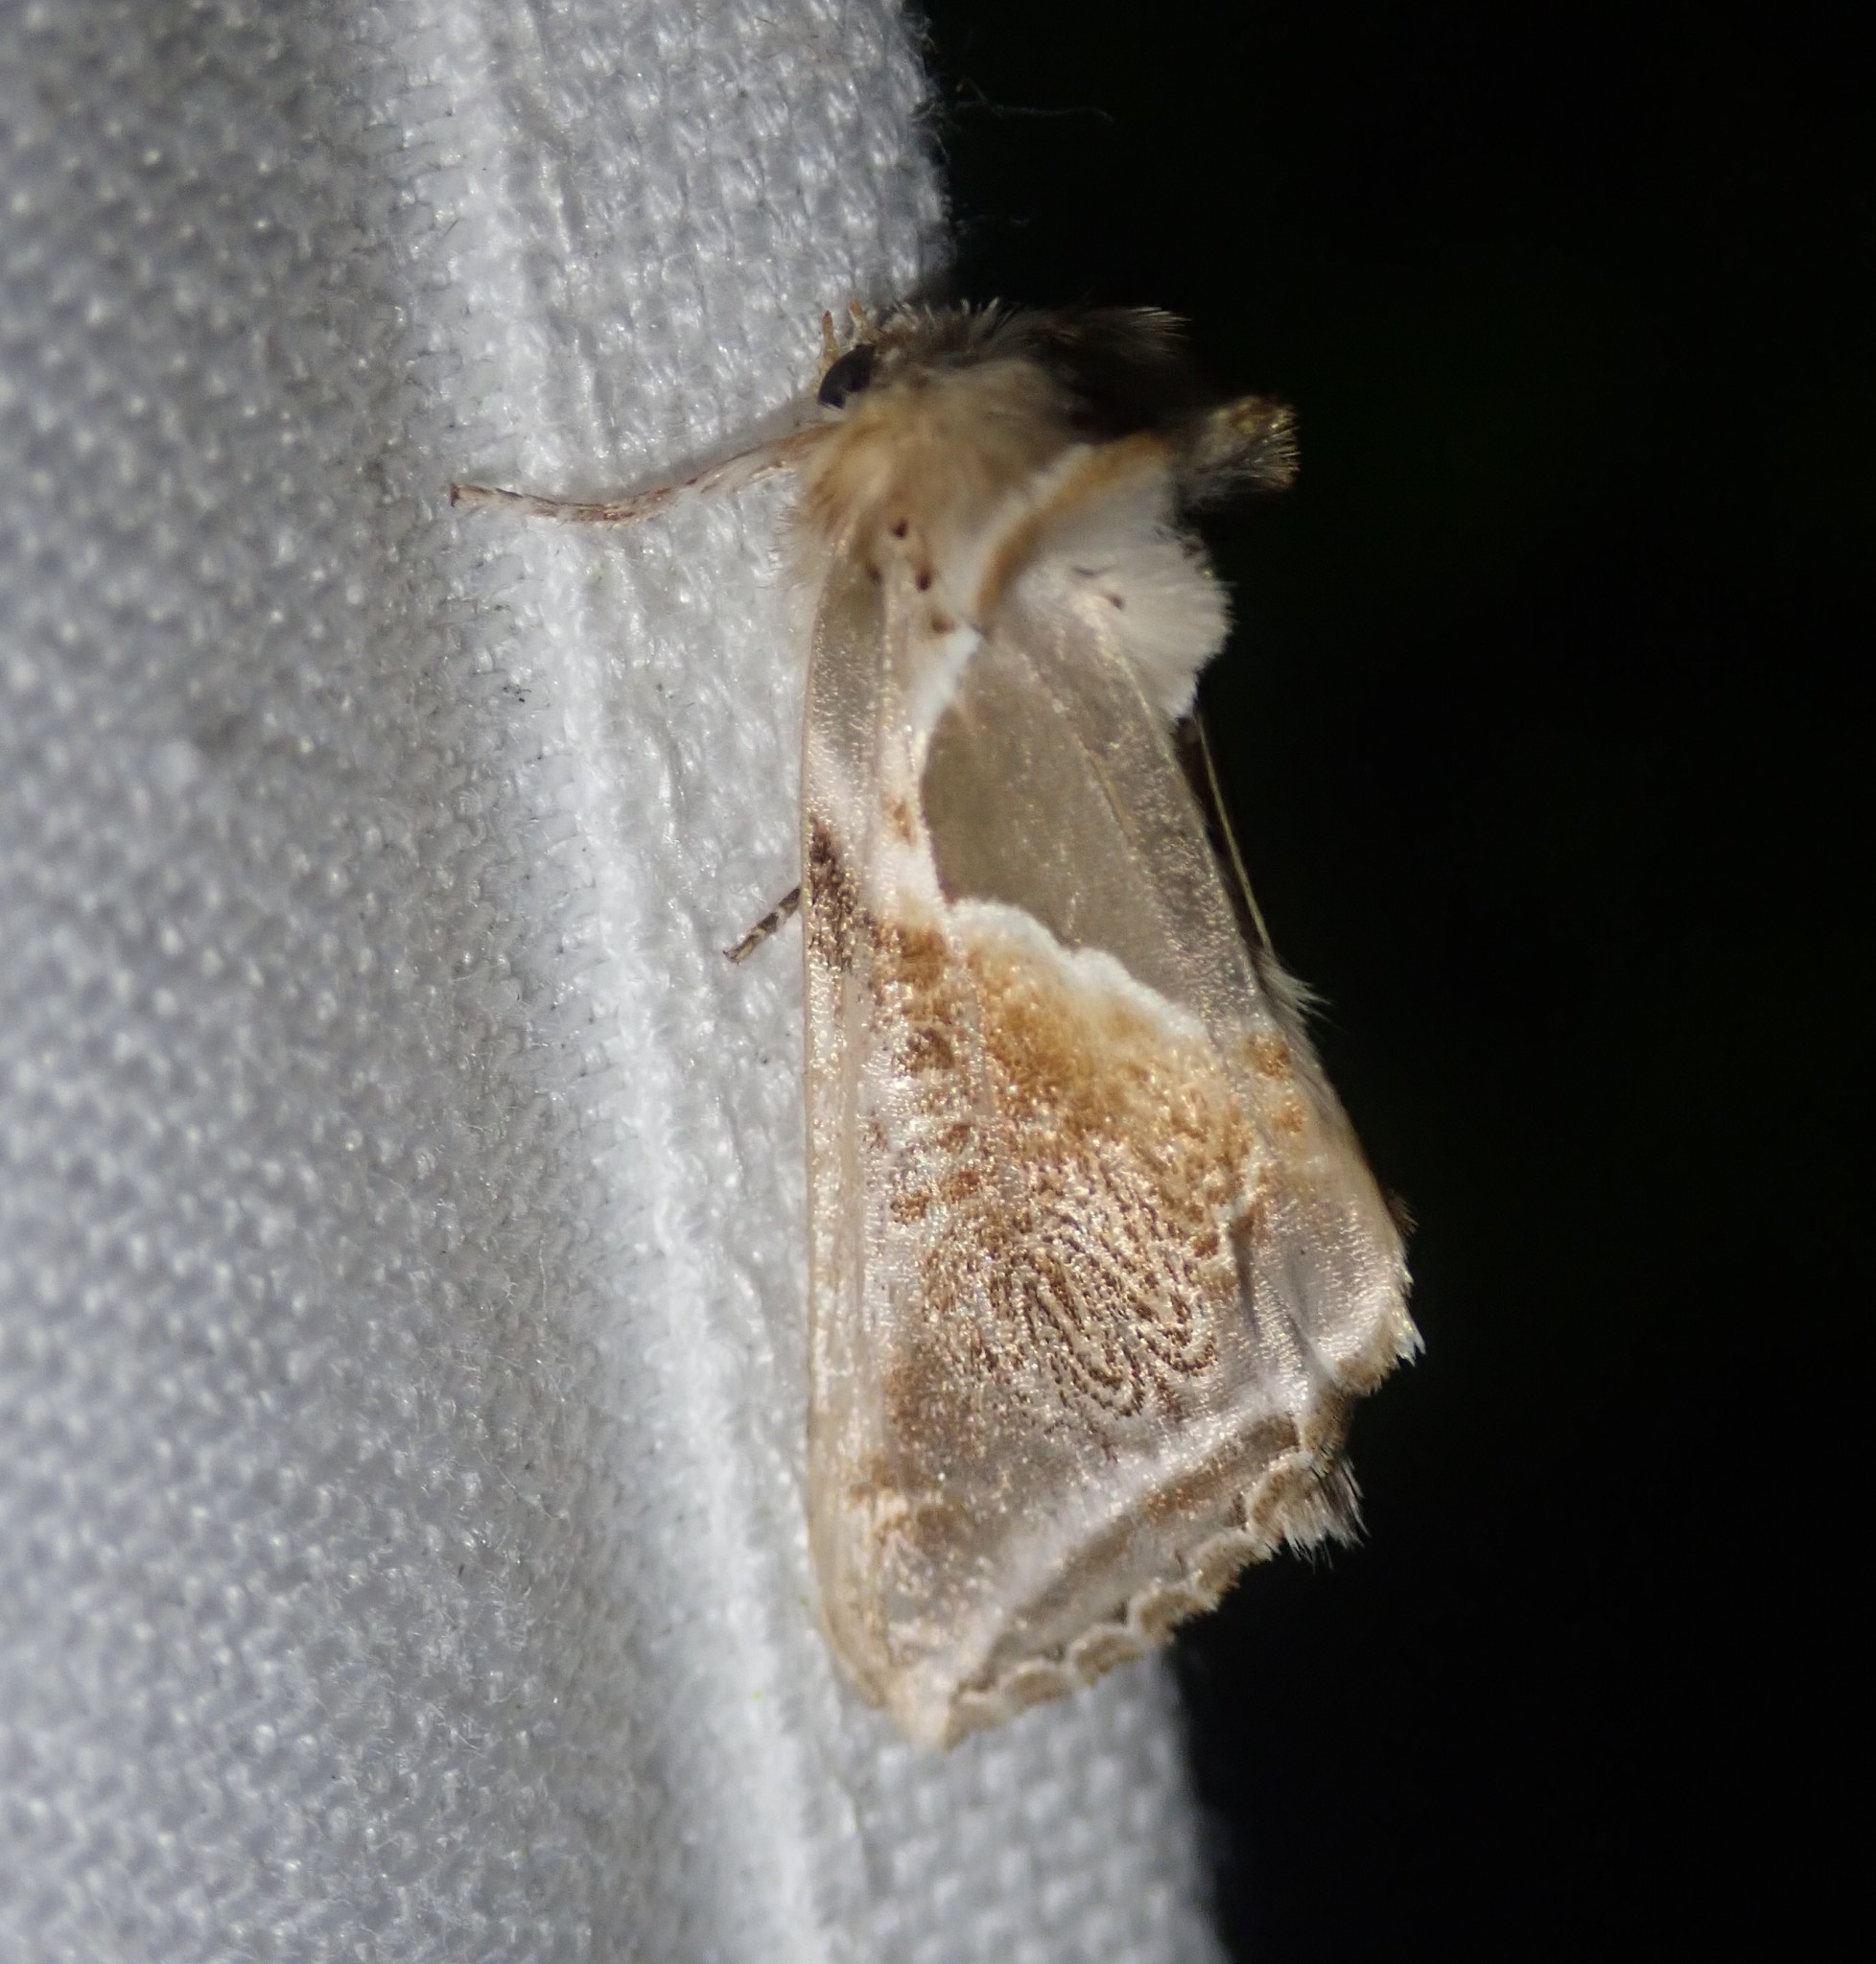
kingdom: Animalia
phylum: Arthropoda
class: Insecta
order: Lepidoptera
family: Drepanidae
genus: Habrosyne
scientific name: Habrosyne pyritoides
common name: Buff arches
